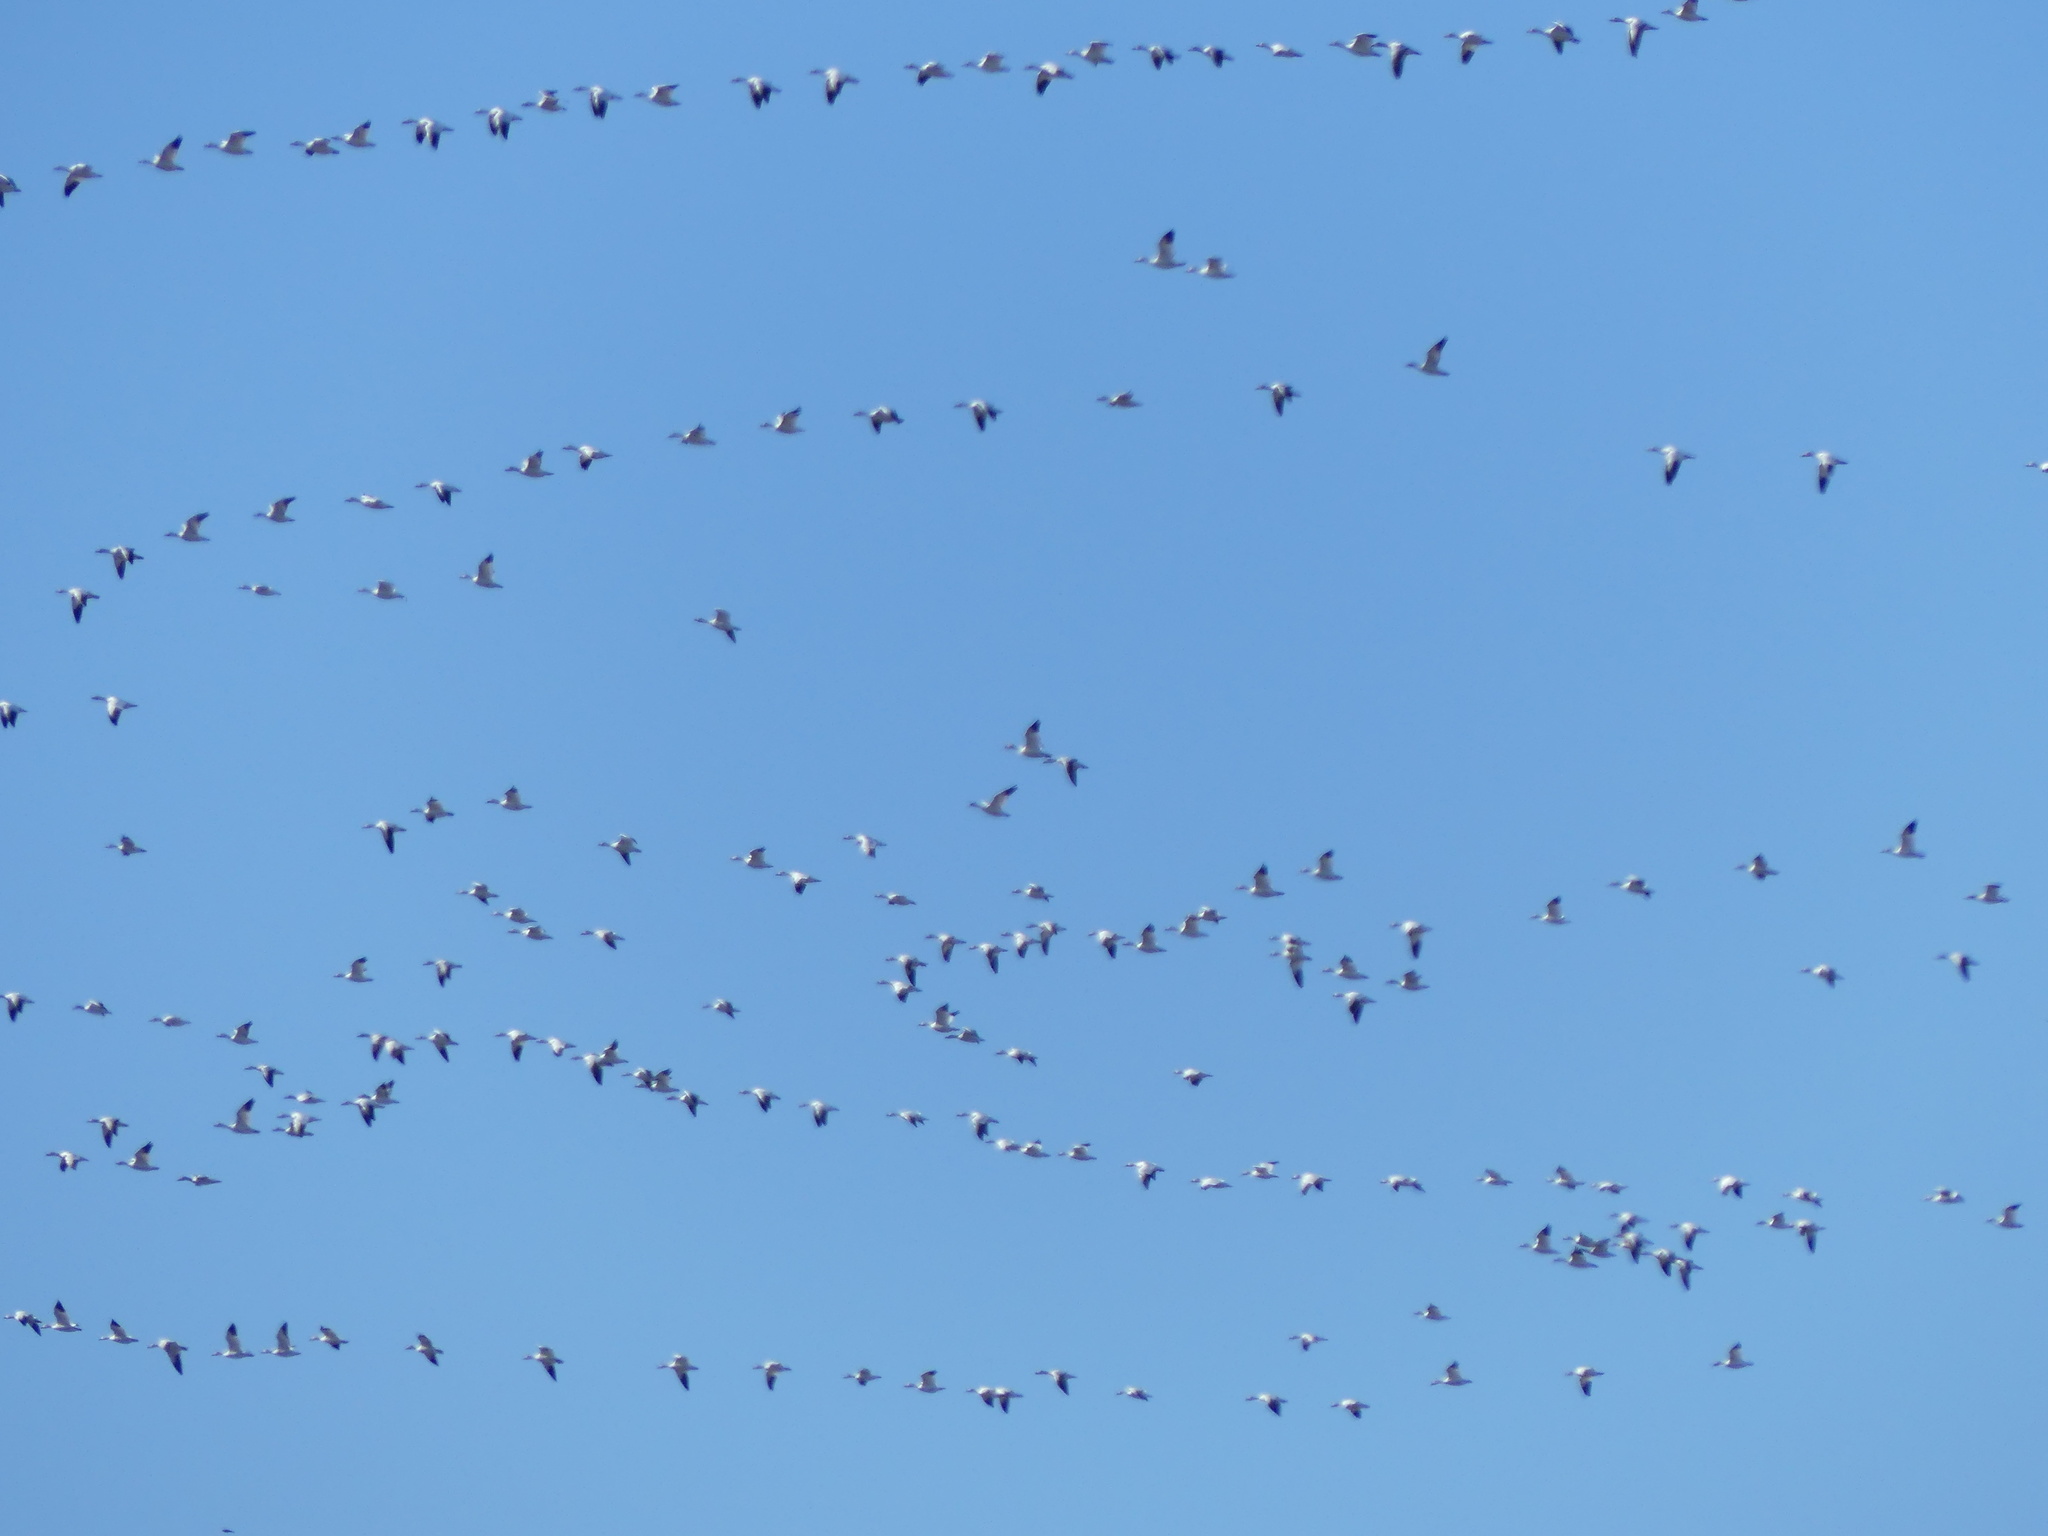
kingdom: Animalia
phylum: Chordata
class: Aves
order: Anseriformes
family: Anatidae
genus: Anser
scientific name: Anser caerulescens
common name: Snow goose
